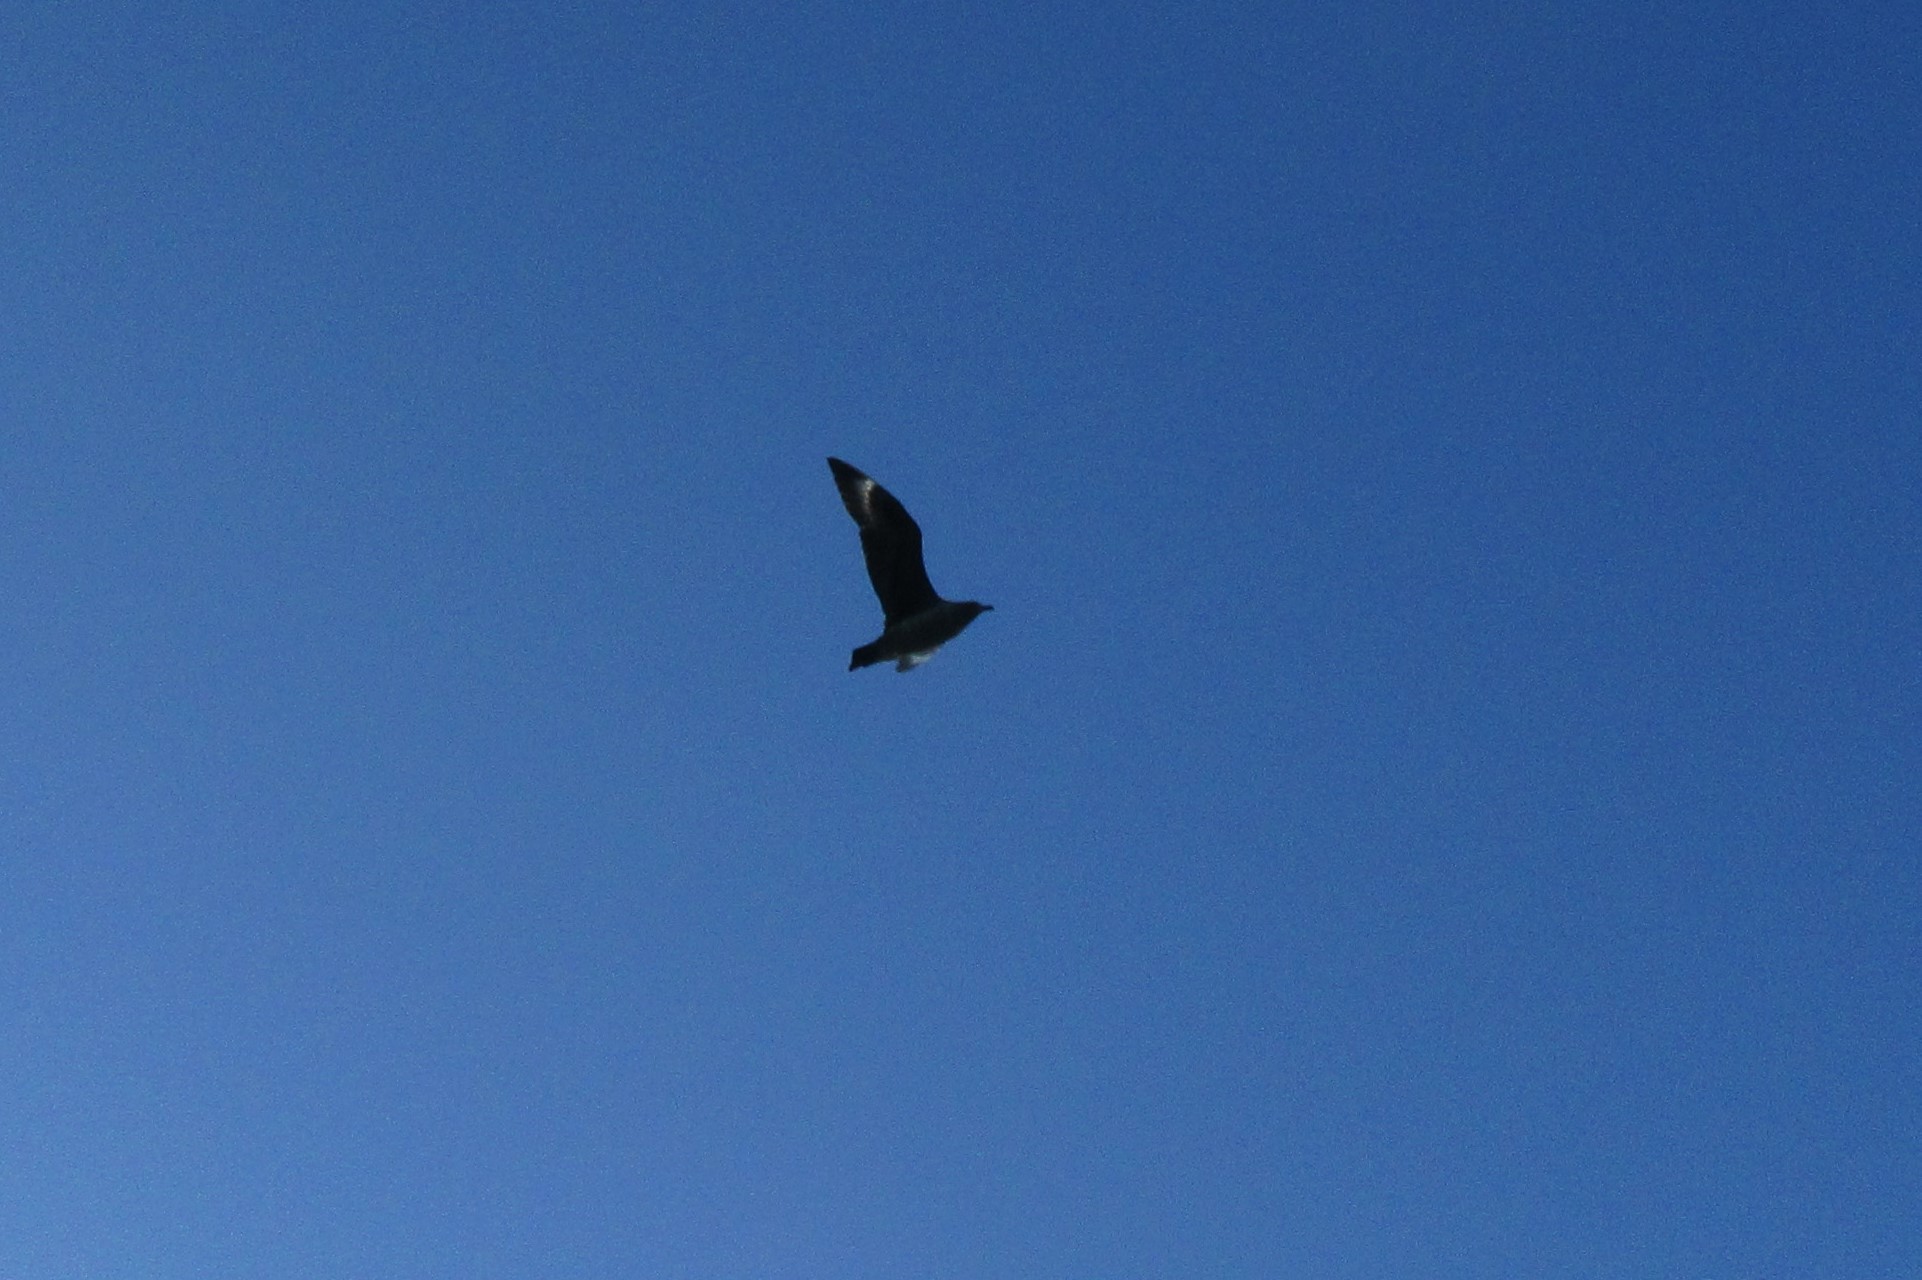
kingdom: Animalia
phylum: Chordata
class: Aves
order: Charadriiformes
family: Stercorariidae
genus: Stercorarius
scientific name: Stercorarius maccormicki
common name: South polar skua
